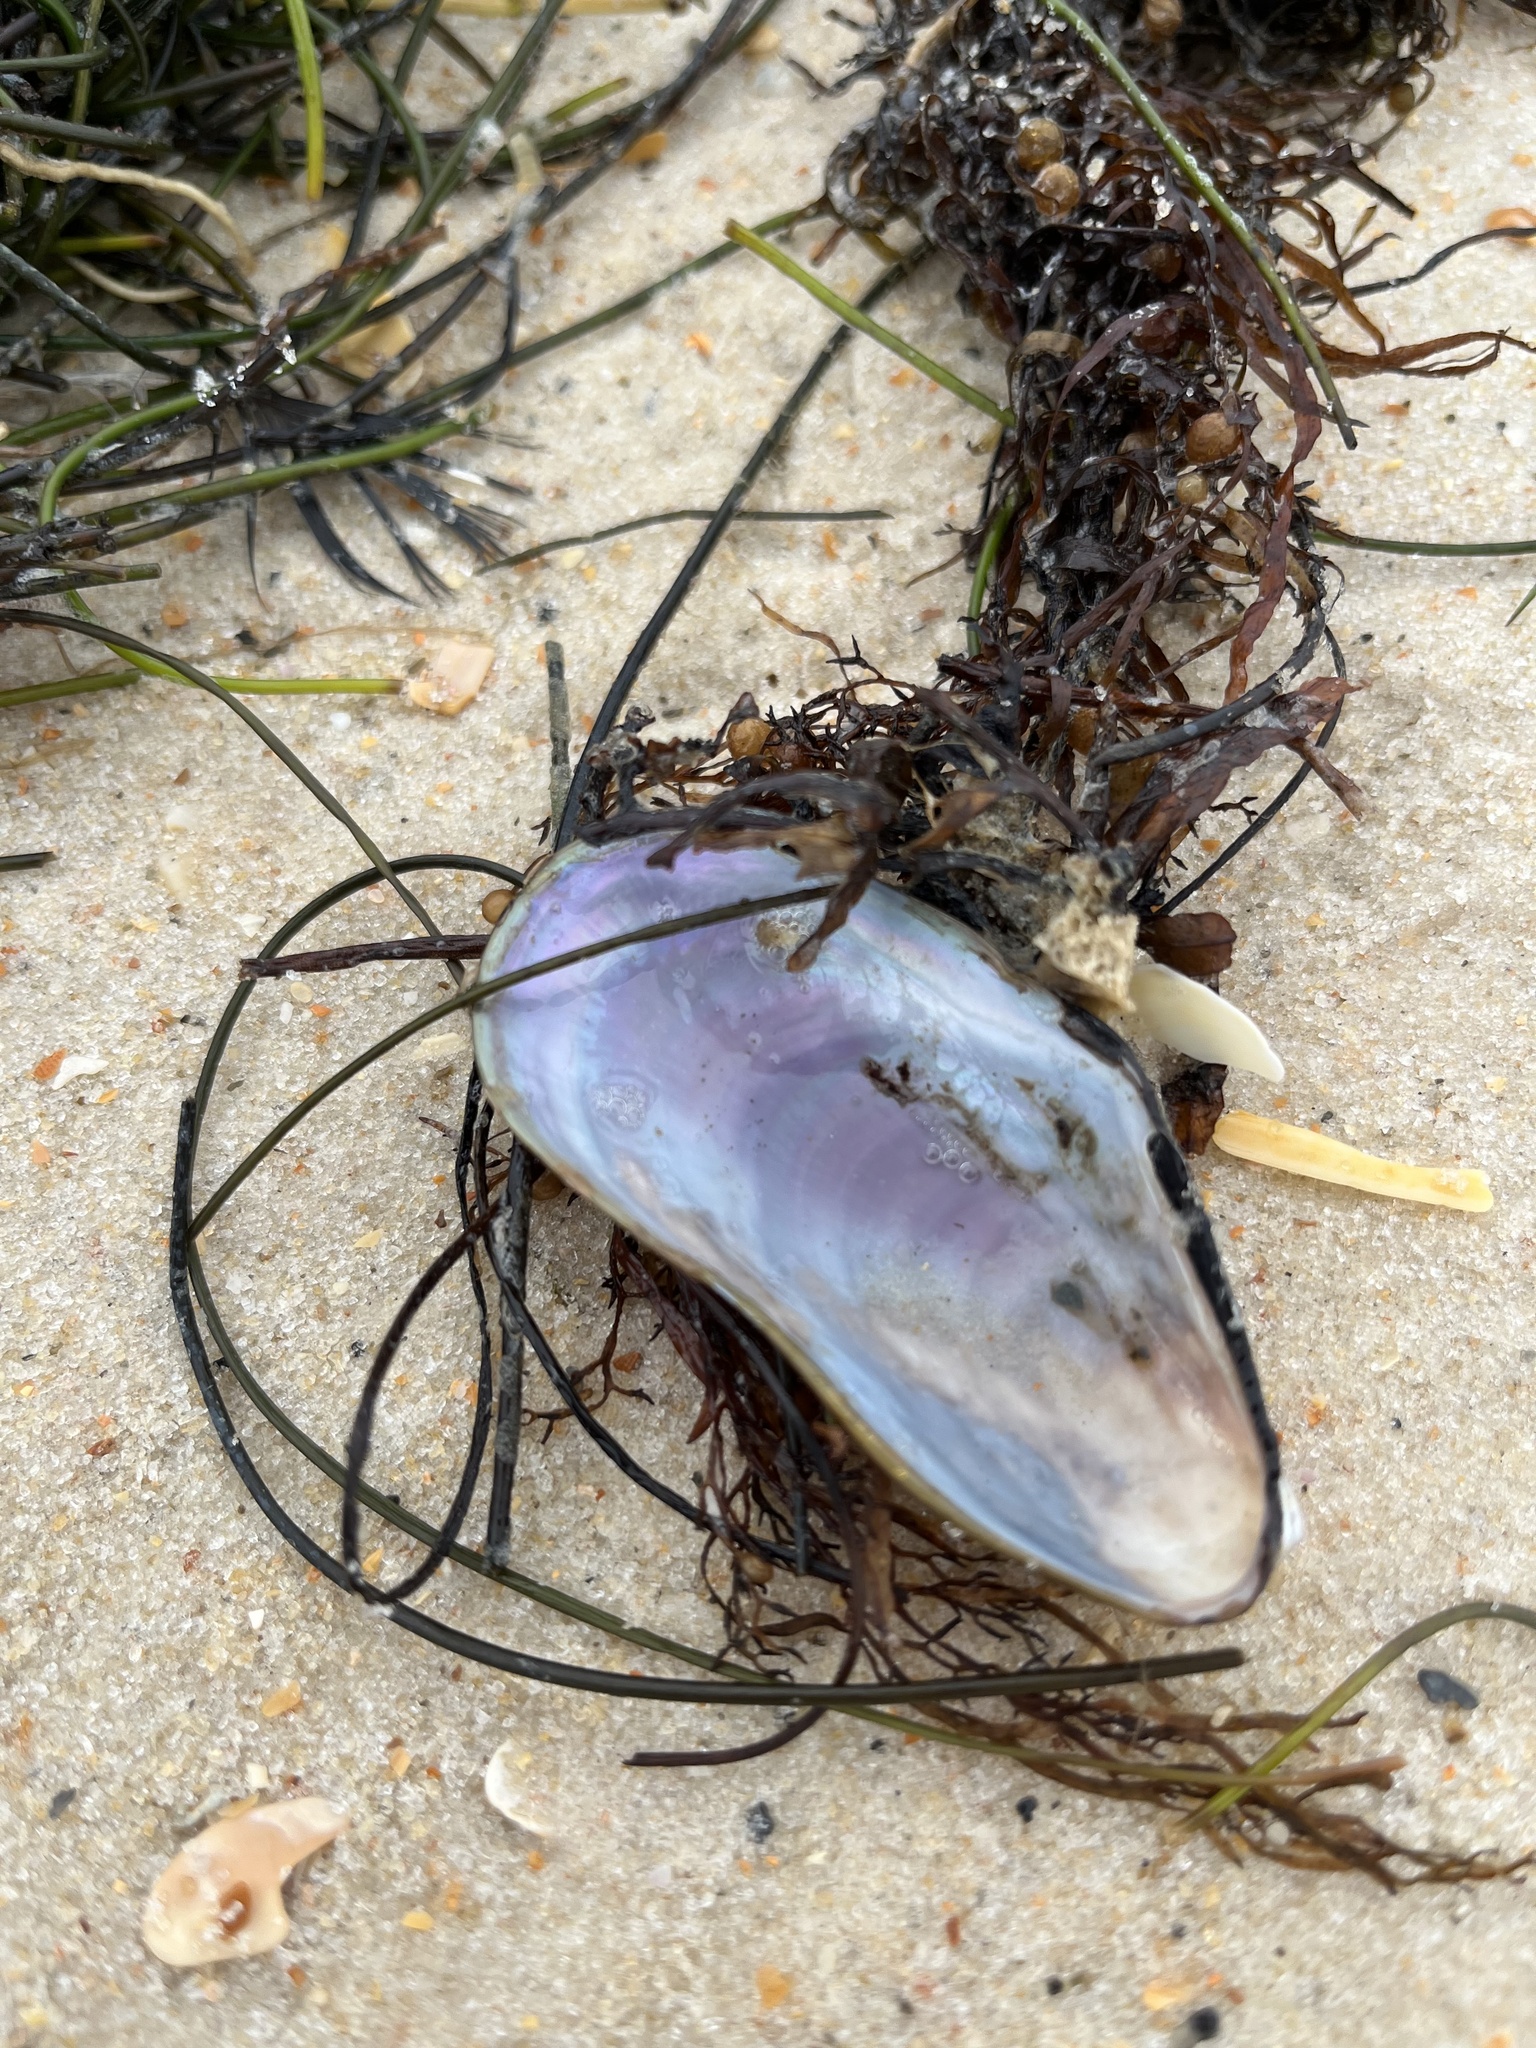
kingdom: Animalia
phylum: Mollusca
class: Bivalvia
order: Mytilida
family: Mytilidae
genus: Geukensia
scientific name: Geukensia granosissima
